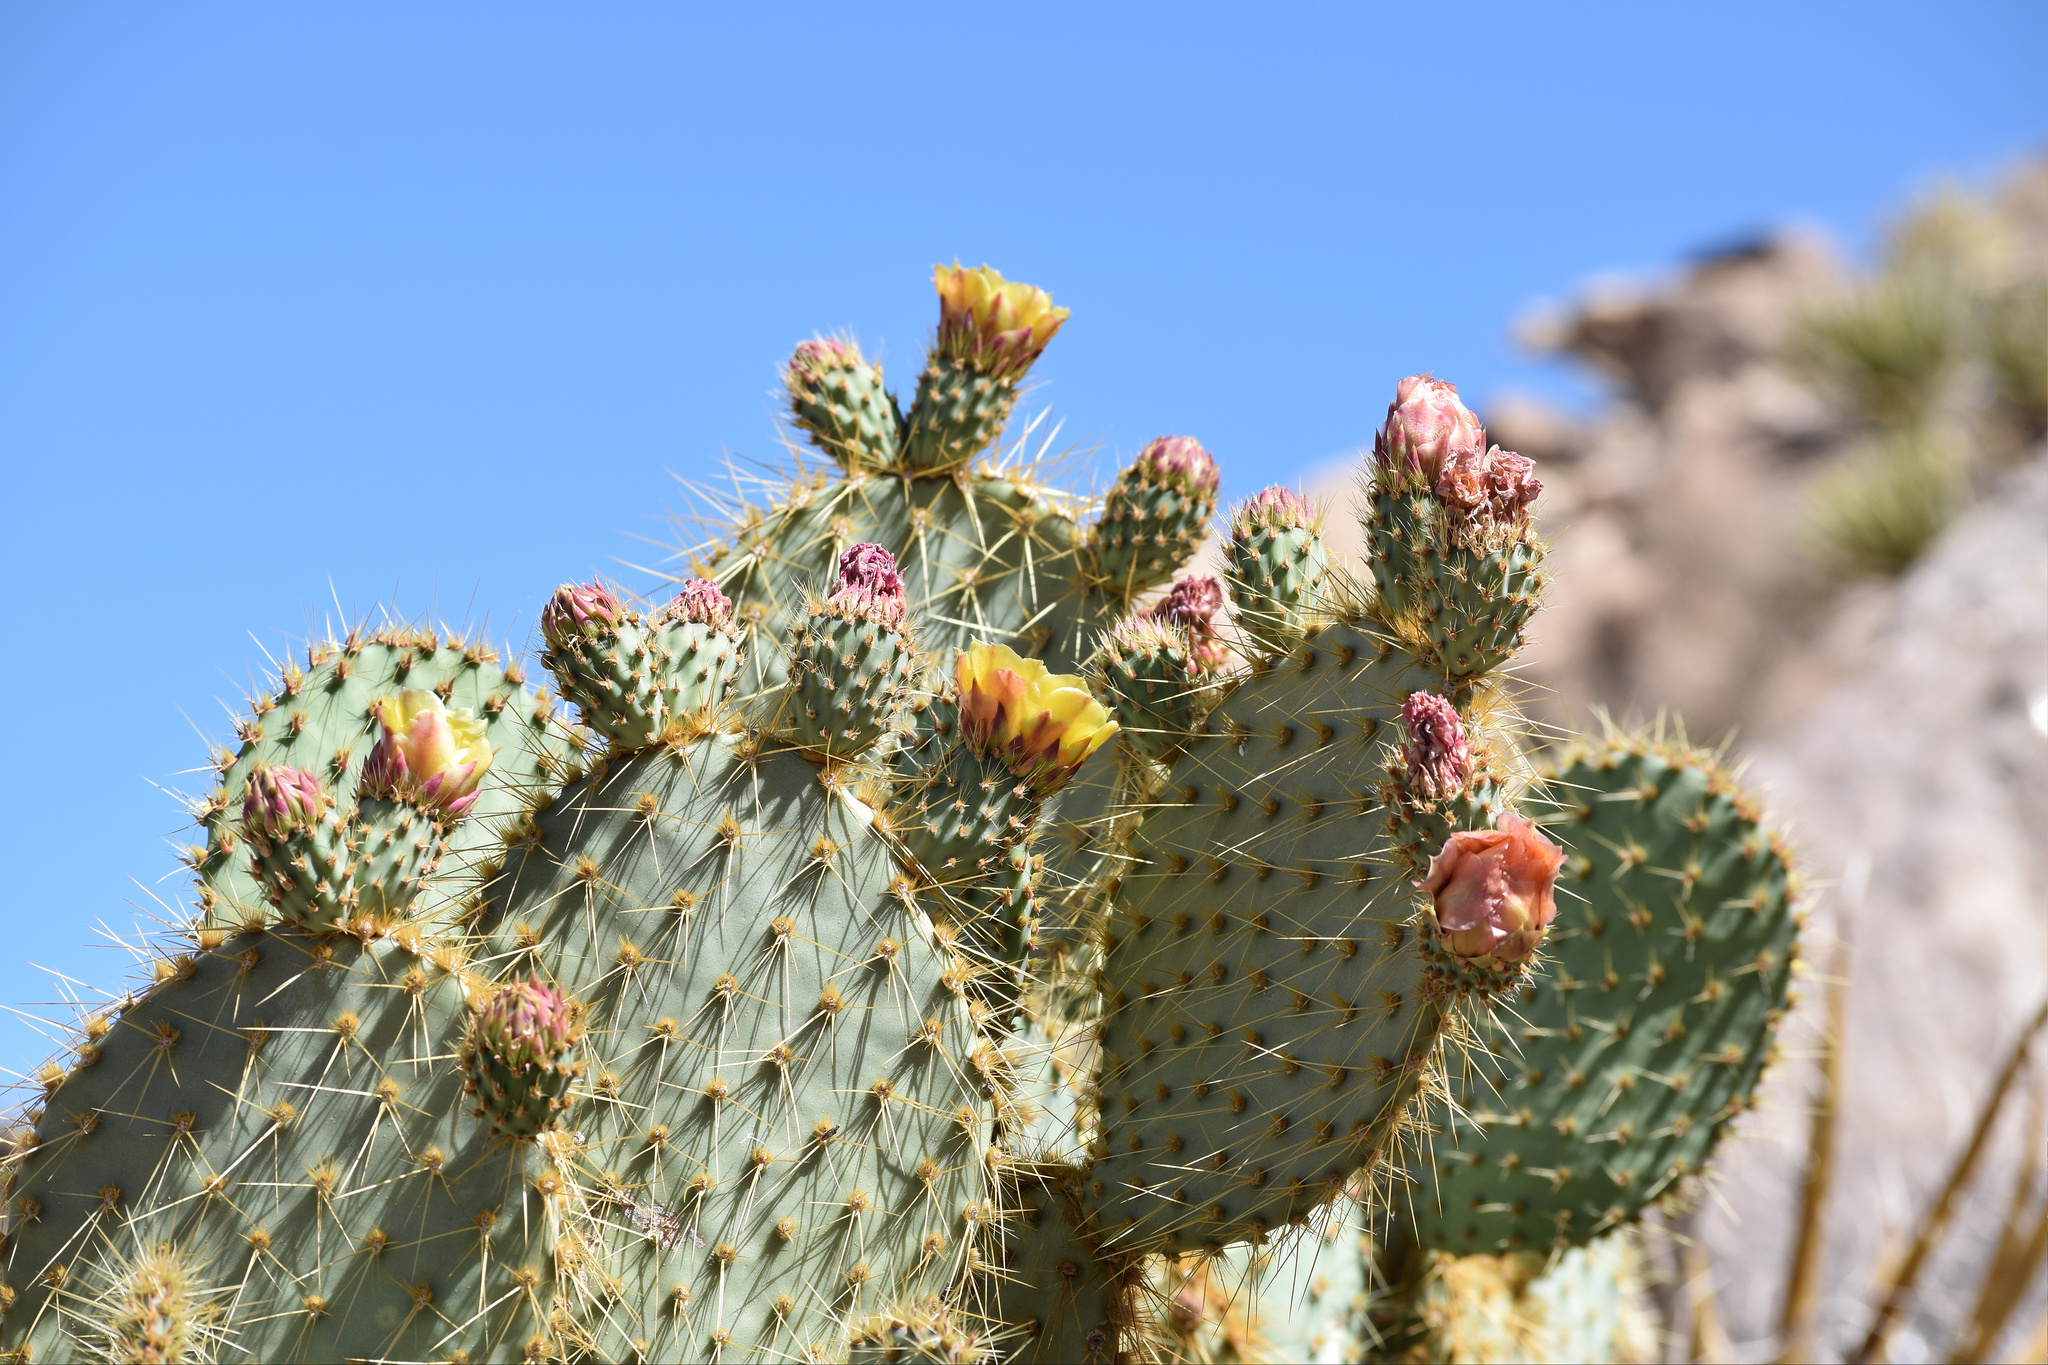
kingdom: Plantae
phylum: Tracheophyta
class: Magnoliopsida
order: Caryophyllales
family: Cactaceae
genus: Opuntia
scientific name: Opuntia chlorotica
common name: Dollar-joint prickly-pear
